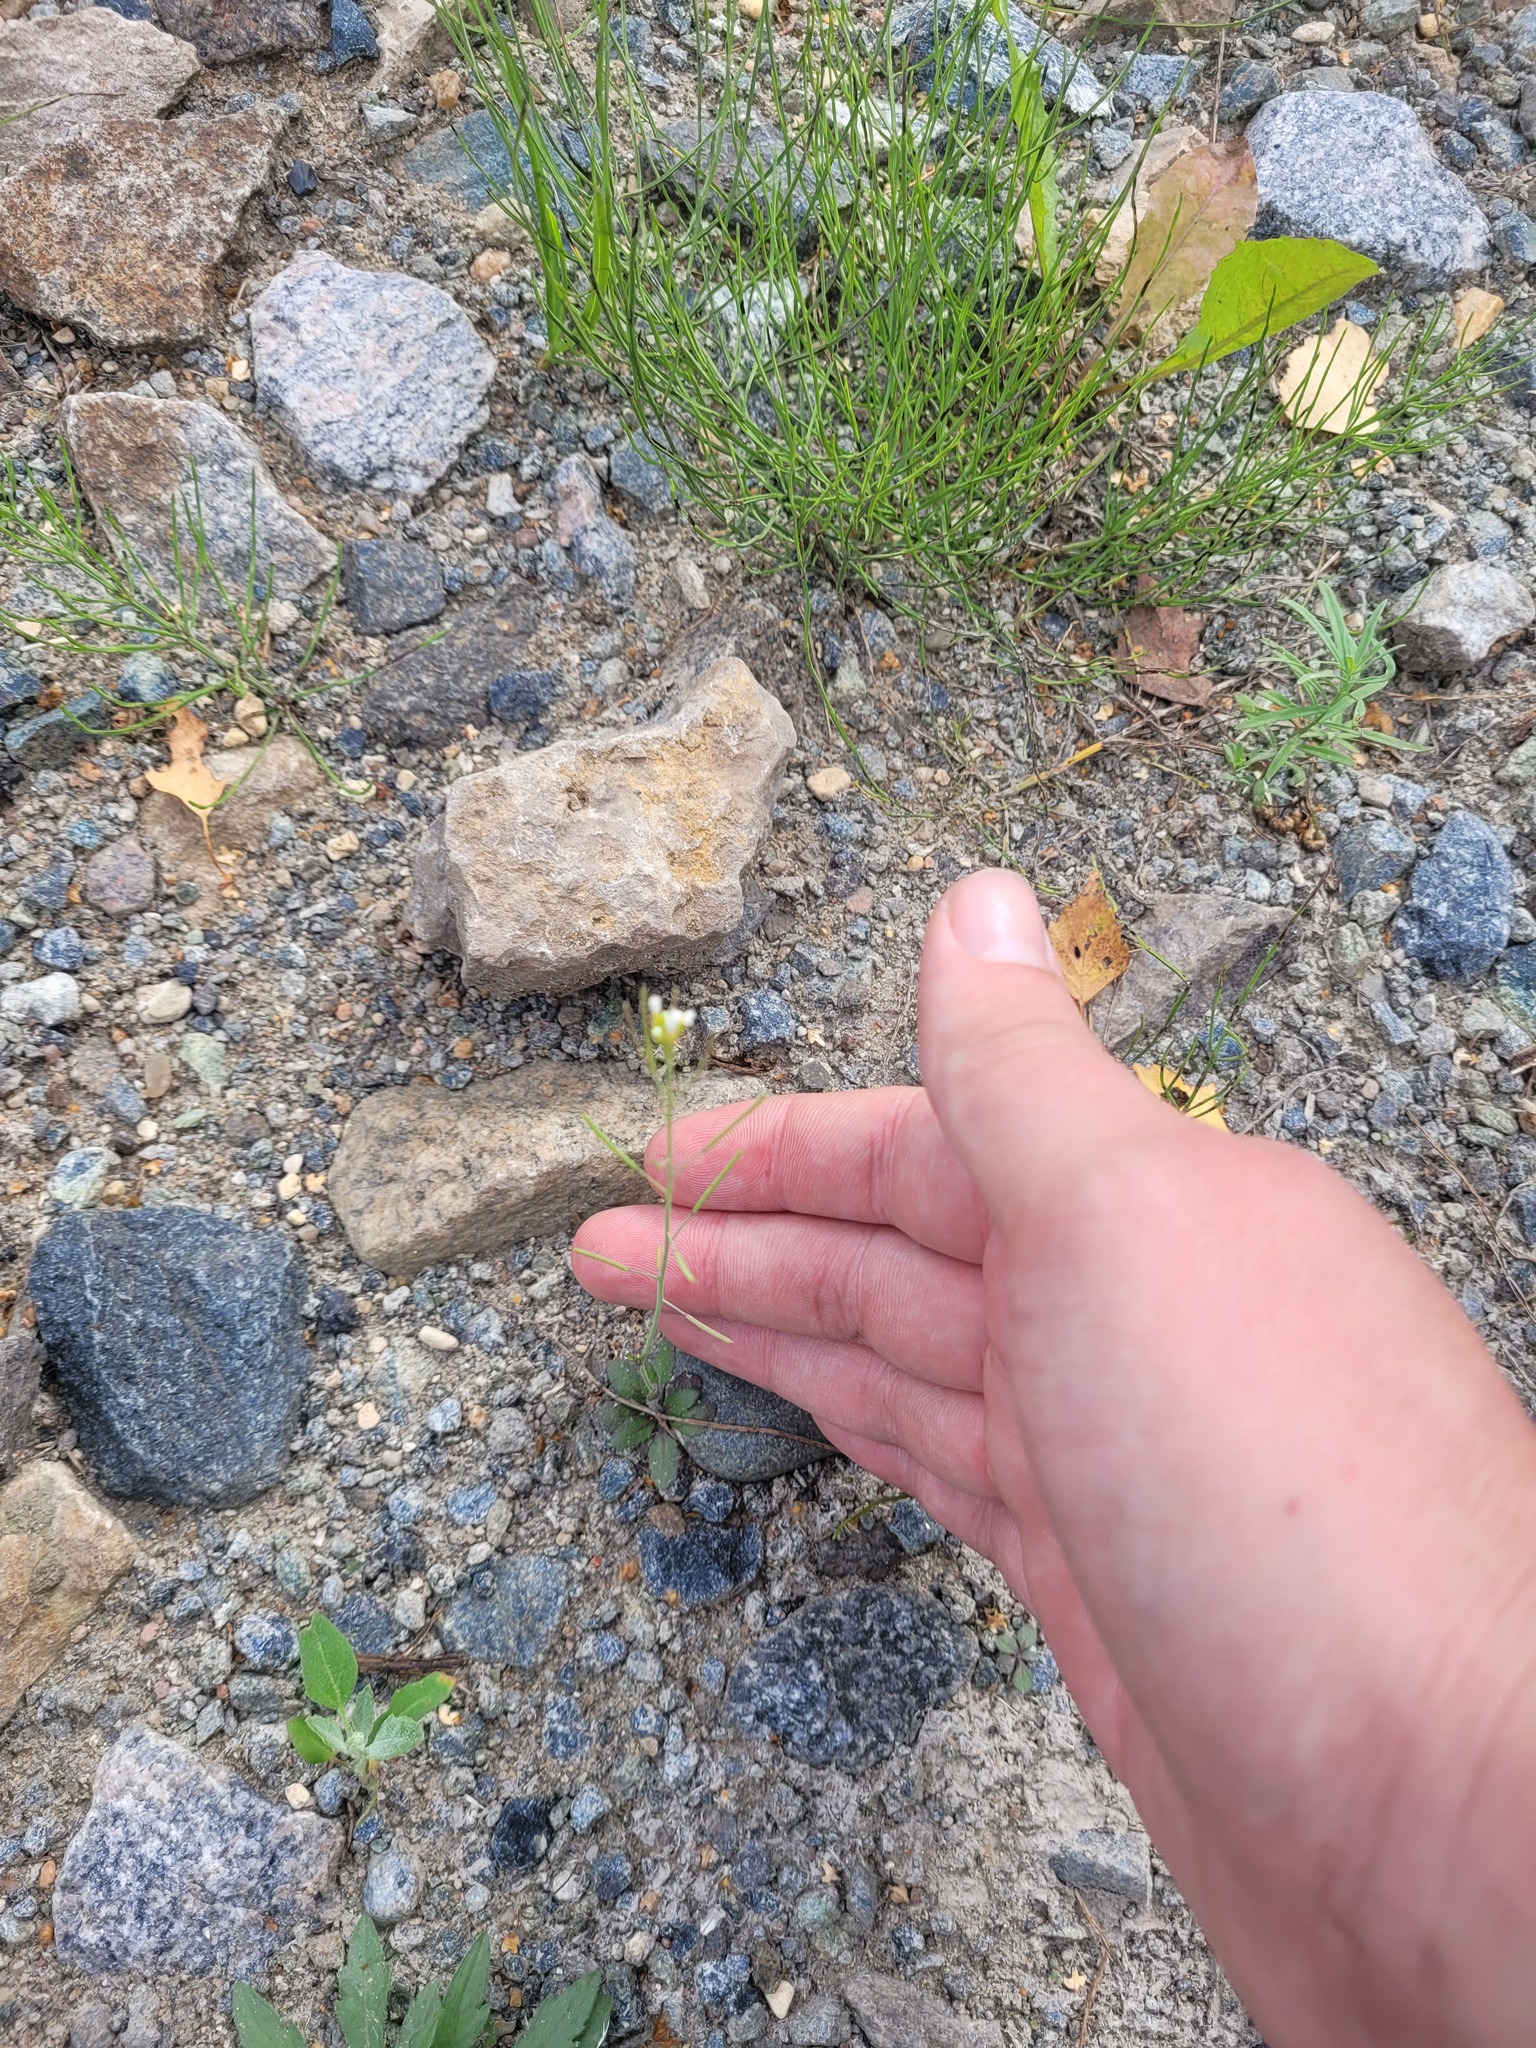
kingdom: Plantae
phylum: Tracheophyta
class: Magnoliopsida
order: Brassicales
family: Brassicaceae
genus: Arabidopsis
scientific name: Arabidopsis thaliana
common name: Thale cress
